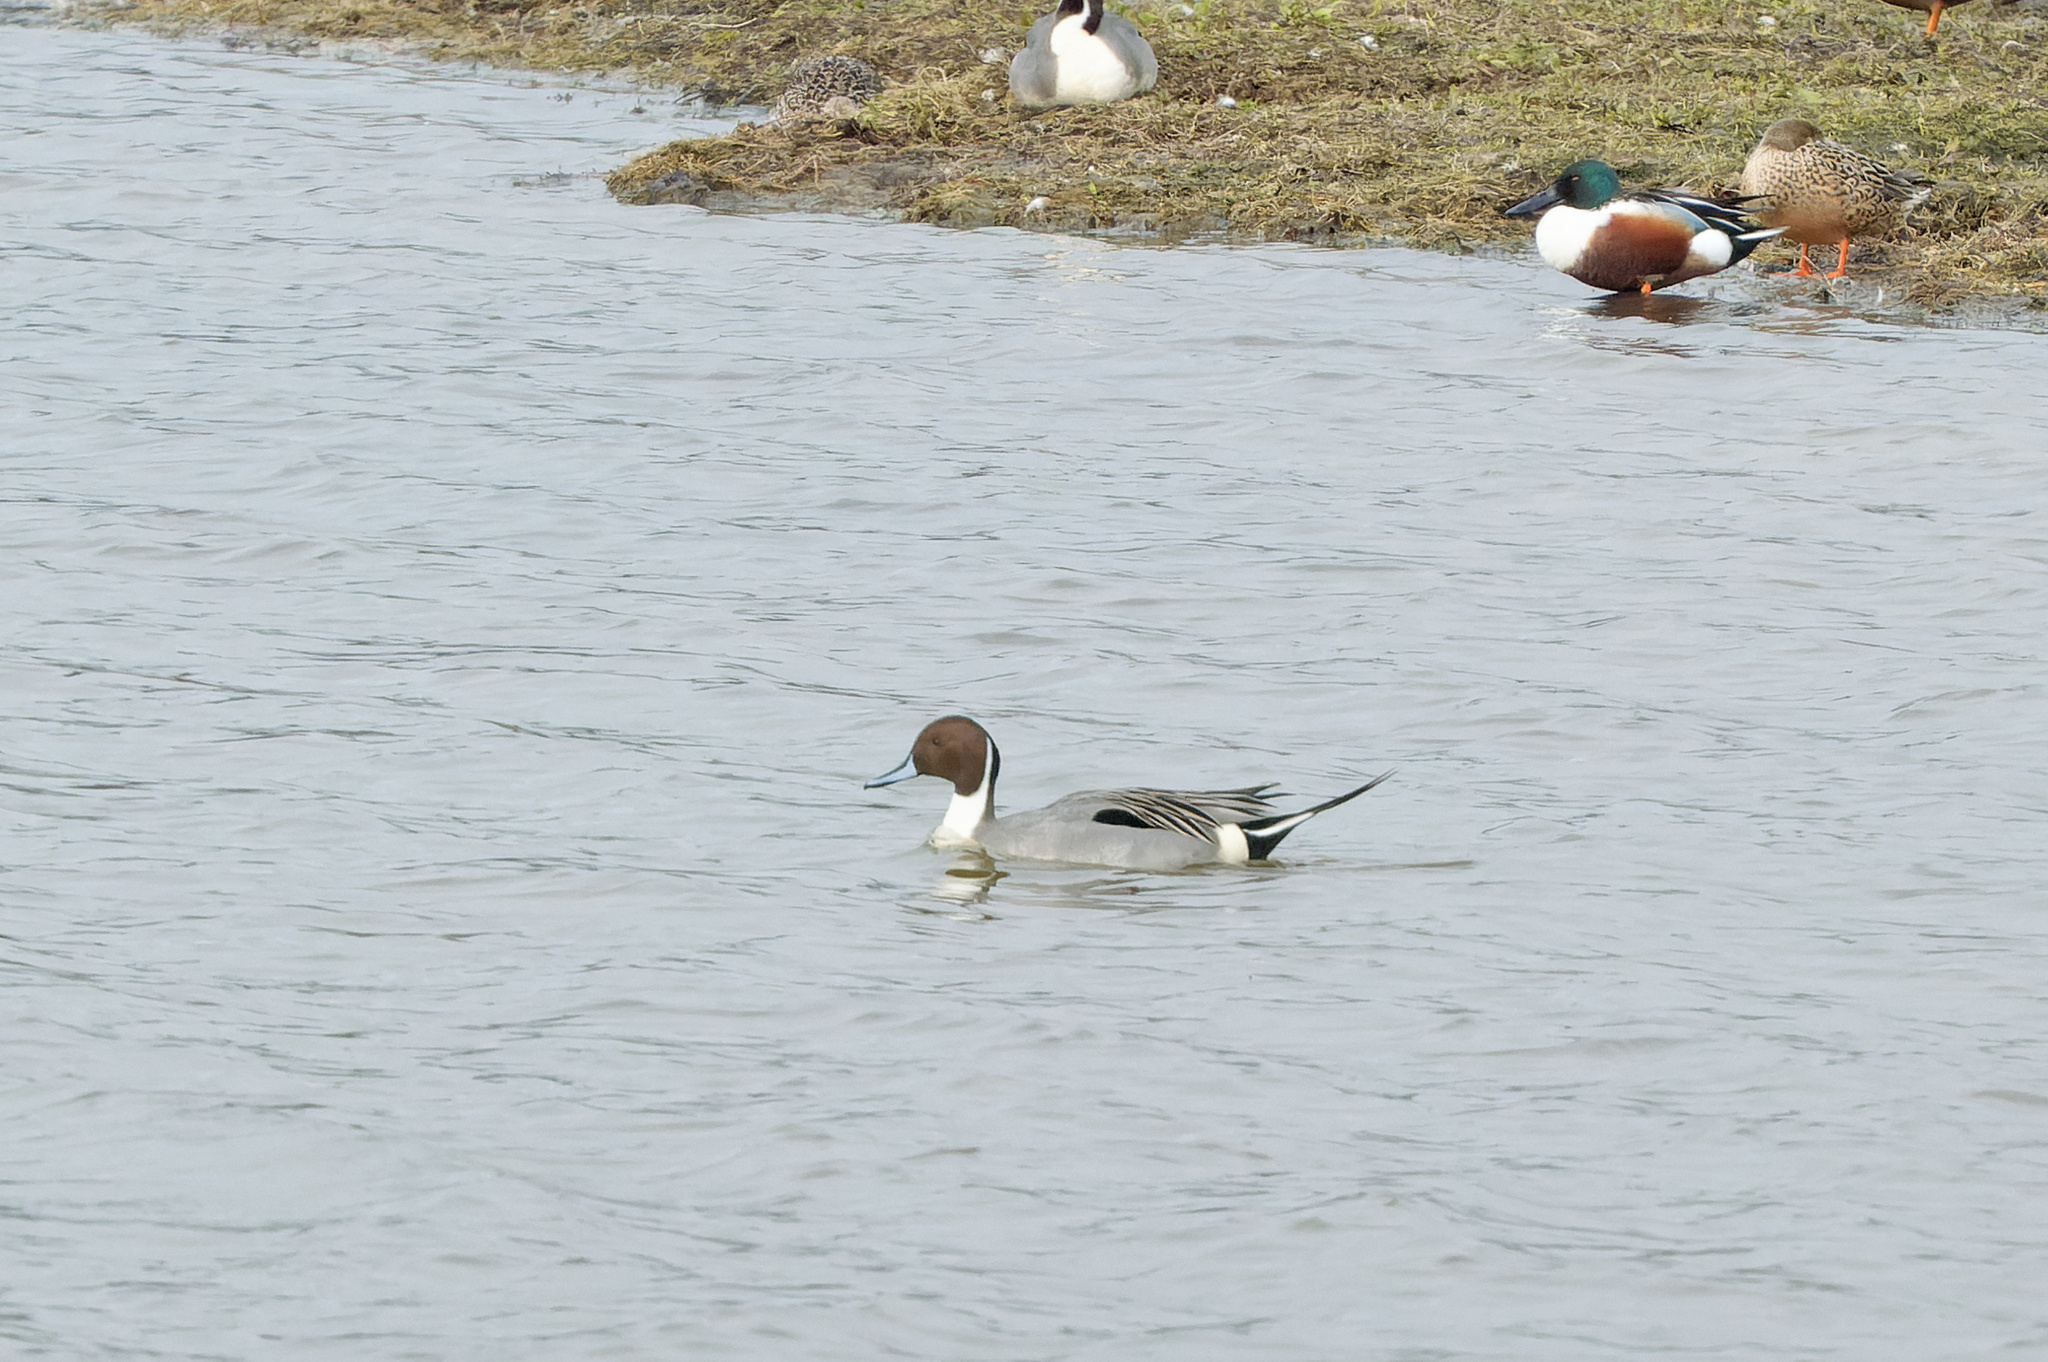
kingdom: Animalia
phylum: Chordata
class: Aves
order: Anseriformes
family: Anatidae
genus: Anas
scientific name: Anas acuta
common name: Northern pintail
